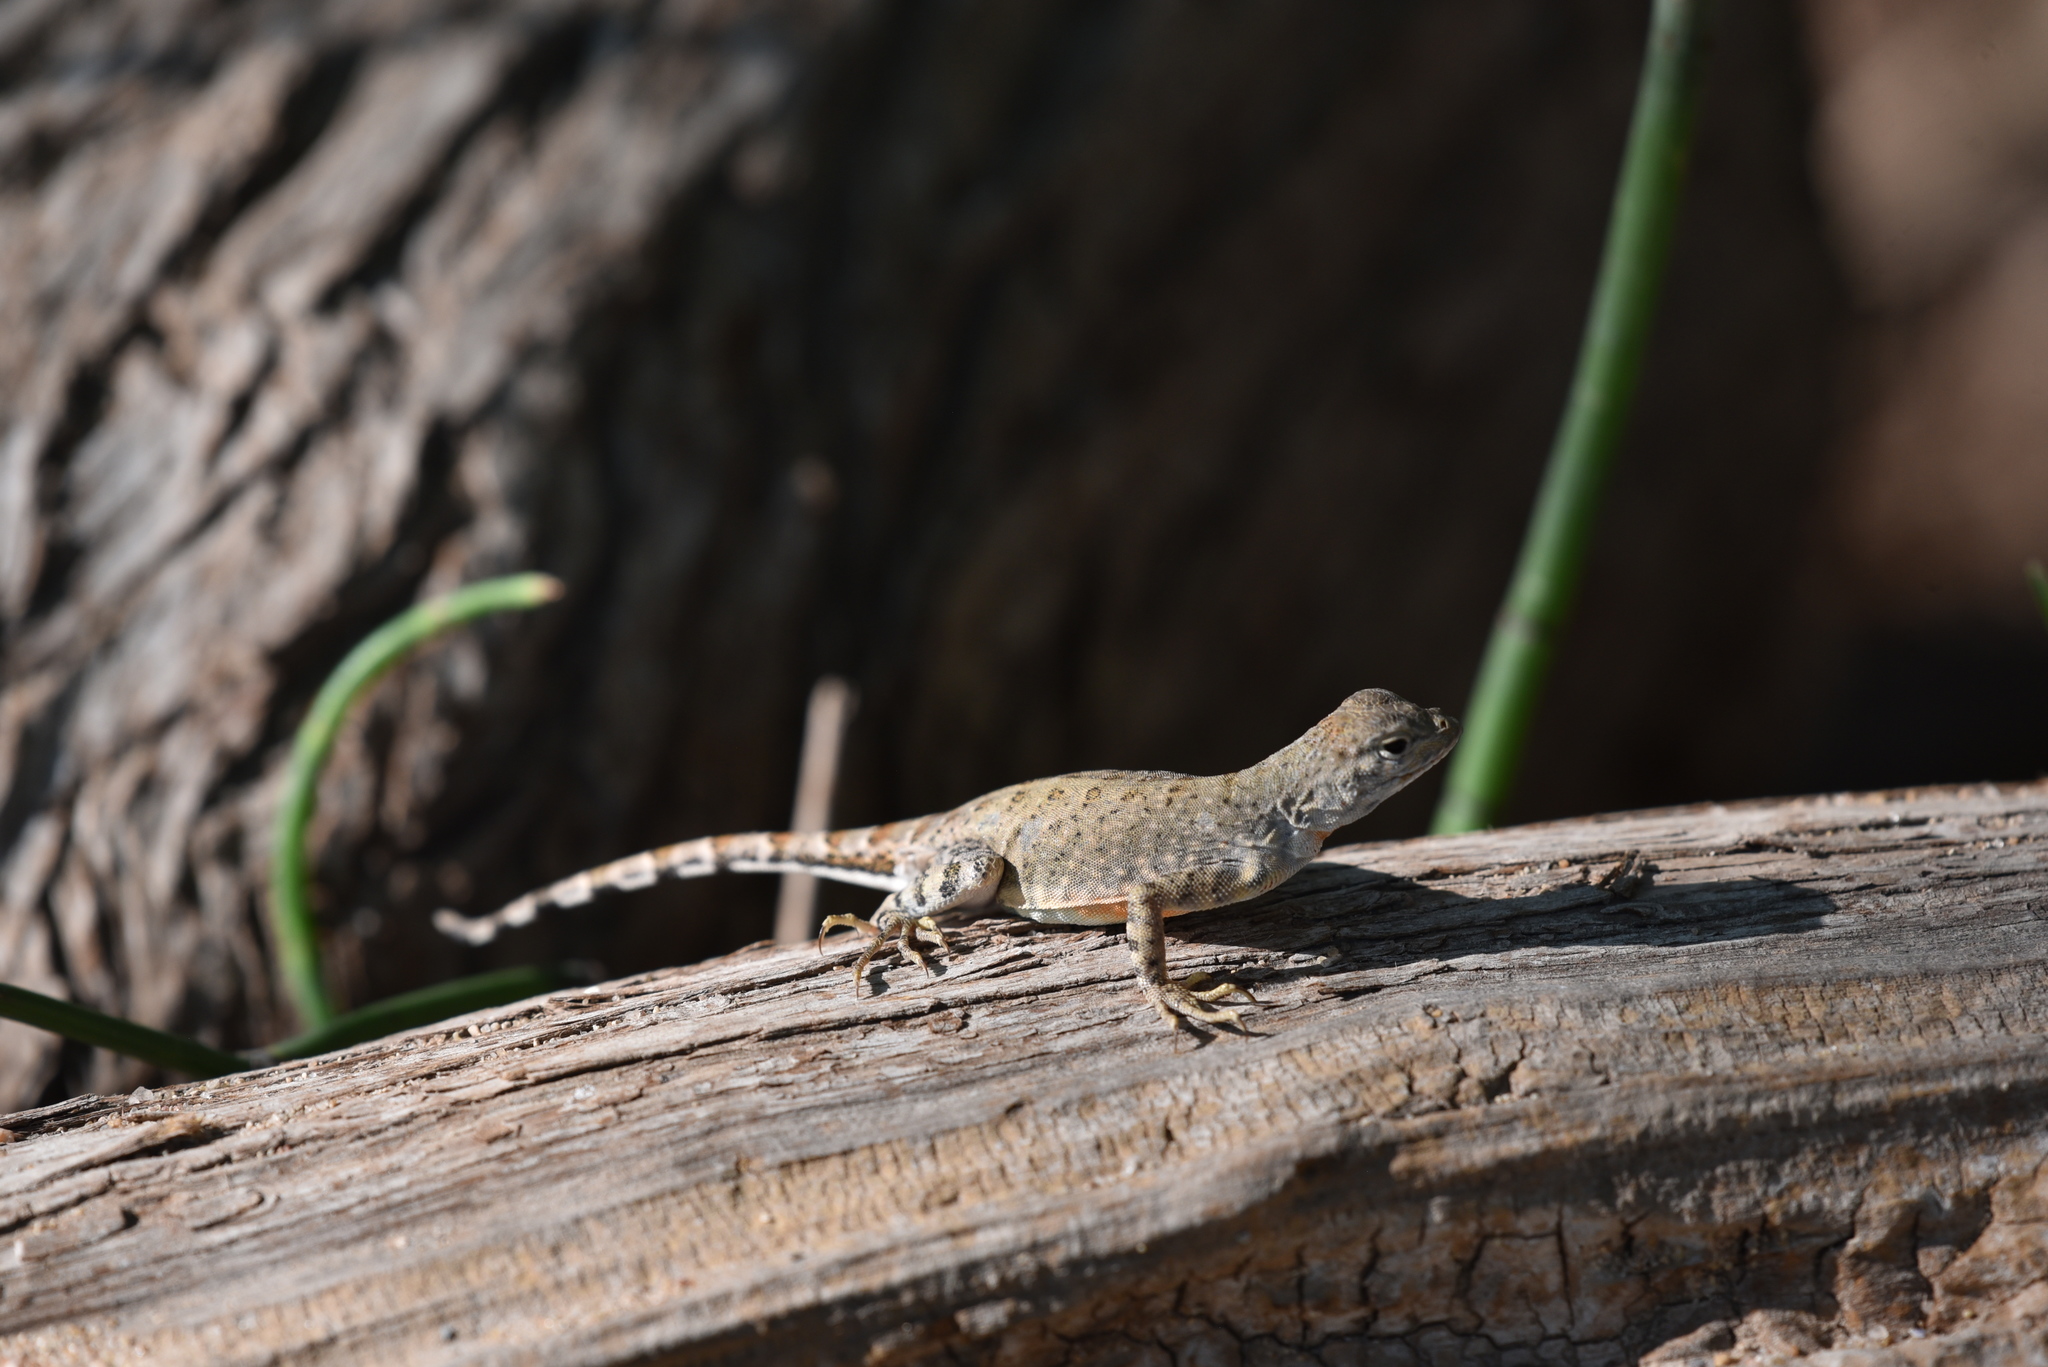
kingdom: Animalia
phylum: Chordata
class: Squamata
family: Phrynosomatidae
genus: Cophosaurus
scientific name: Cophosaurus texanus
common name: Greater earless lizard
